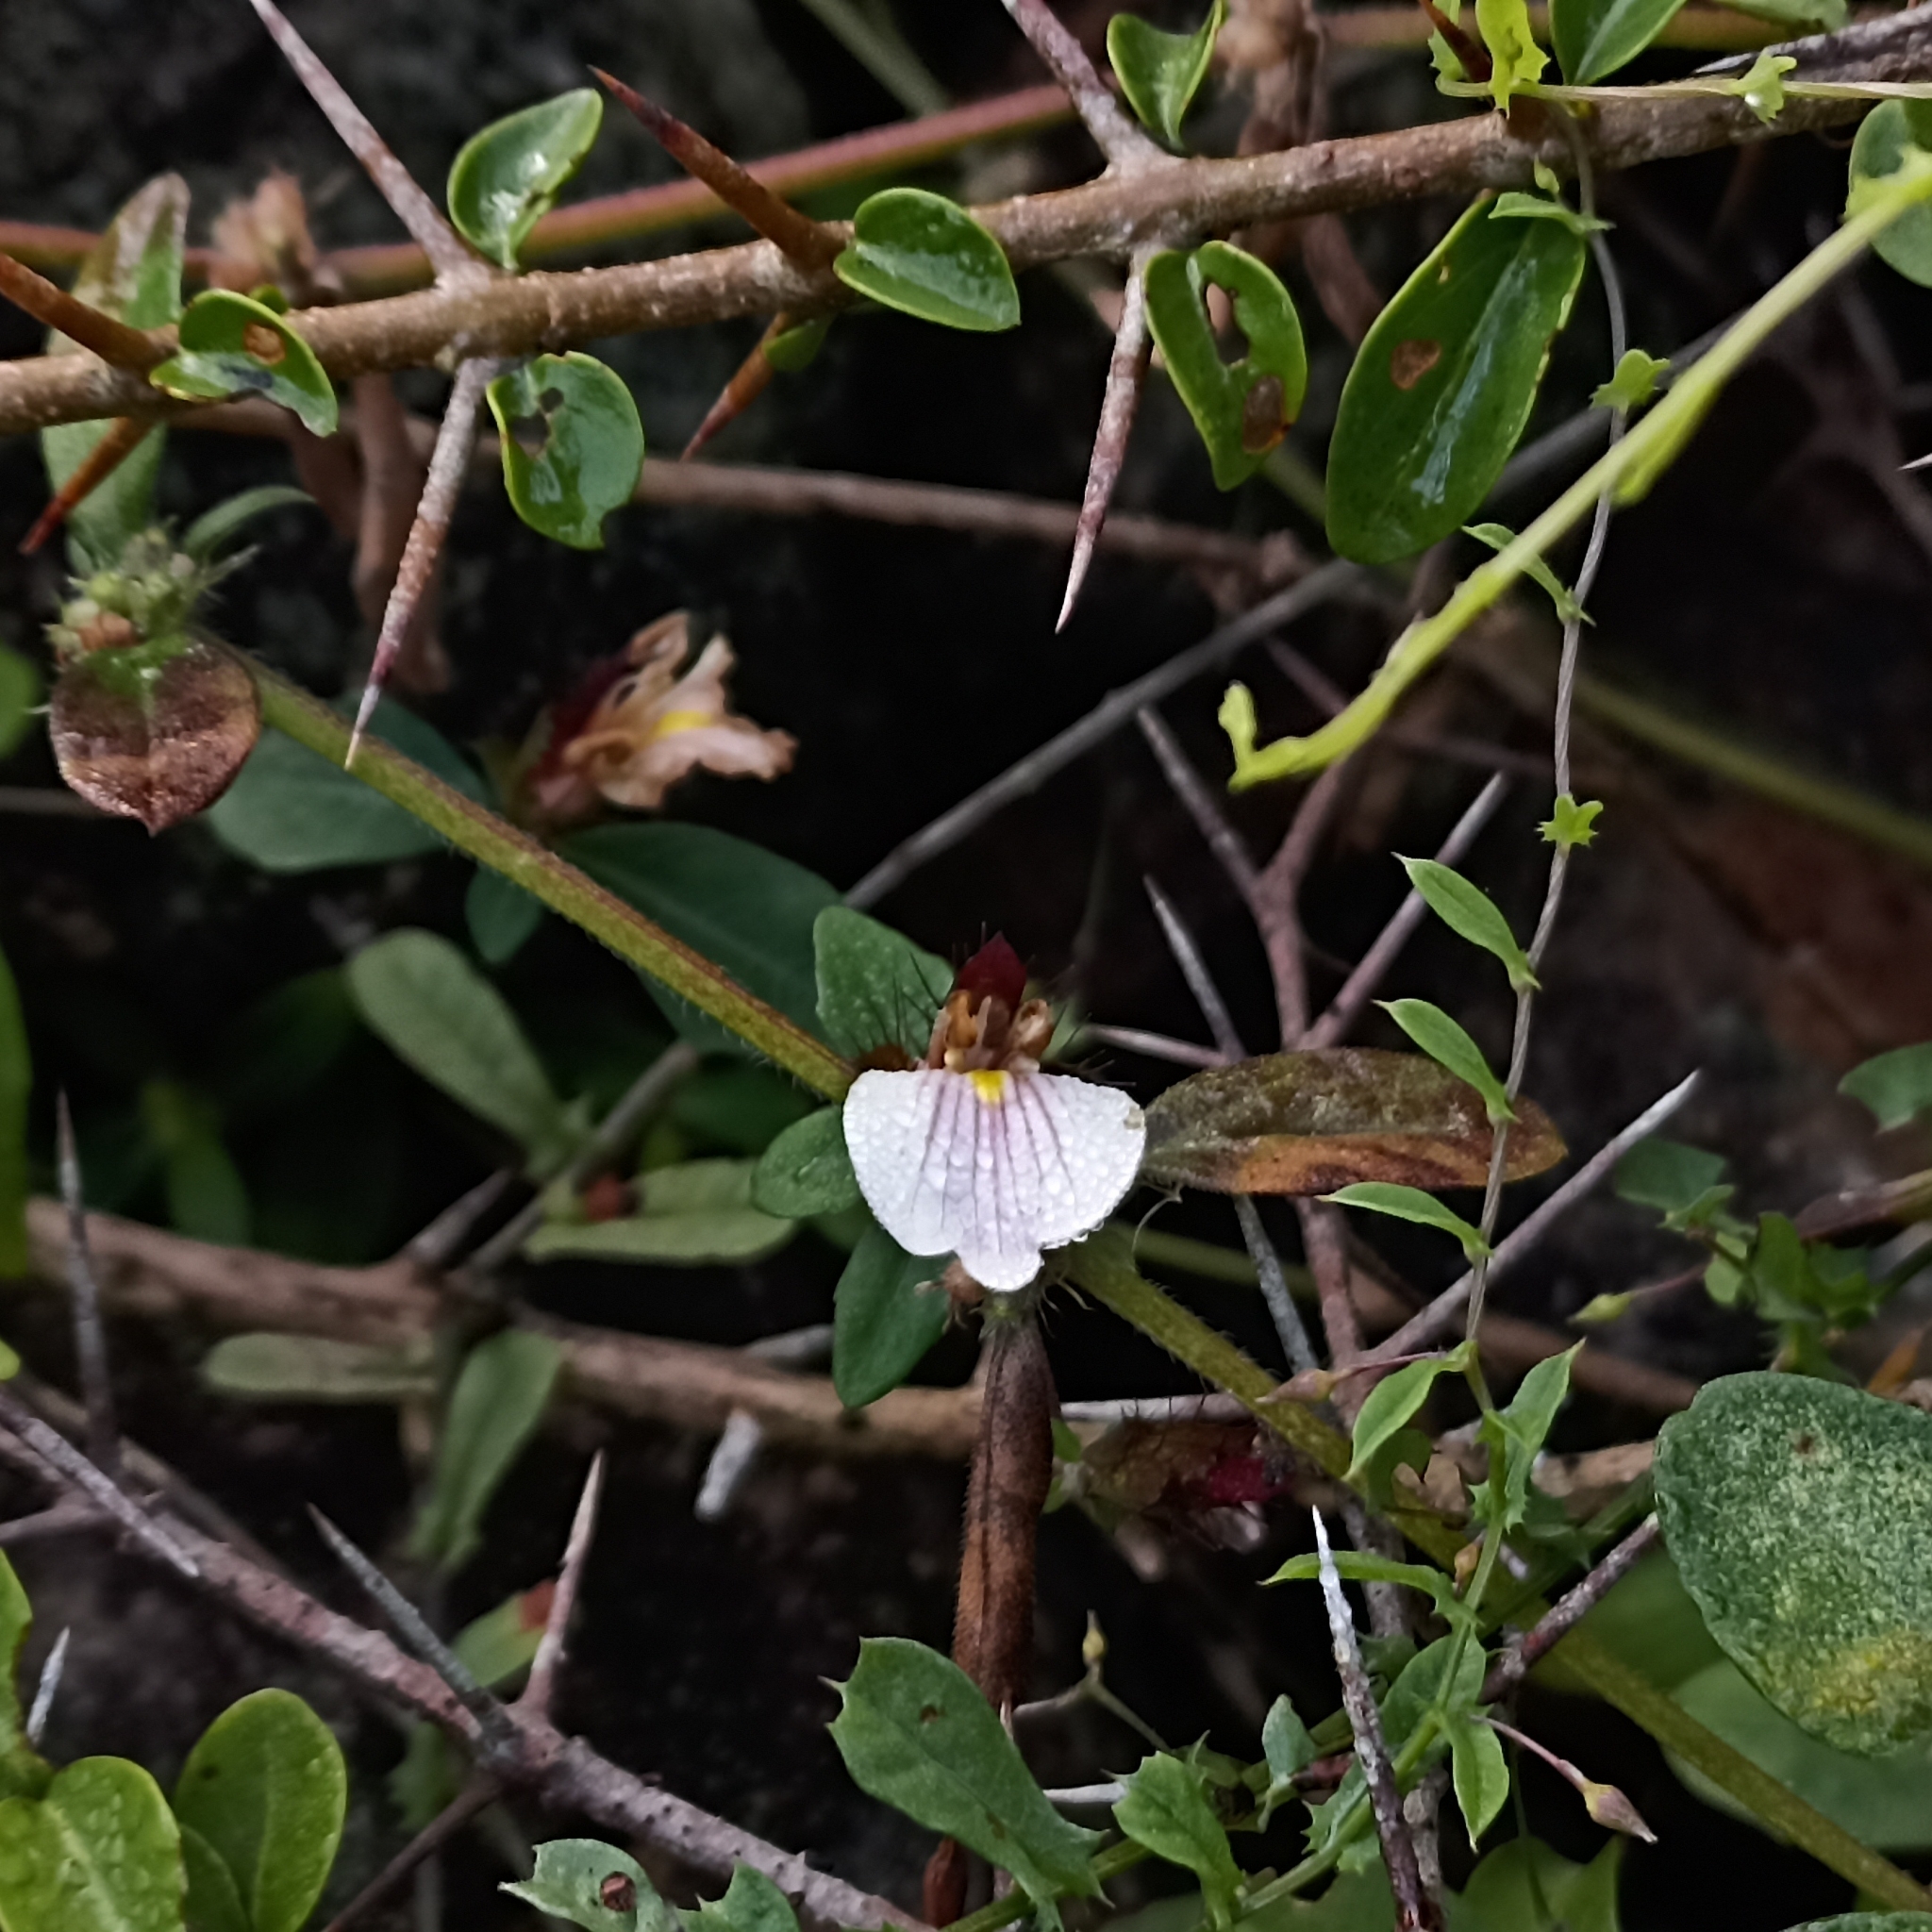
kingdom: Plantae
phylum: Tracheophyta
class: Magnoliopsida
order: Lamiales
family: Acanthaceae
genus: Blepharis
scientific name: Blepharis maderaspatensis
